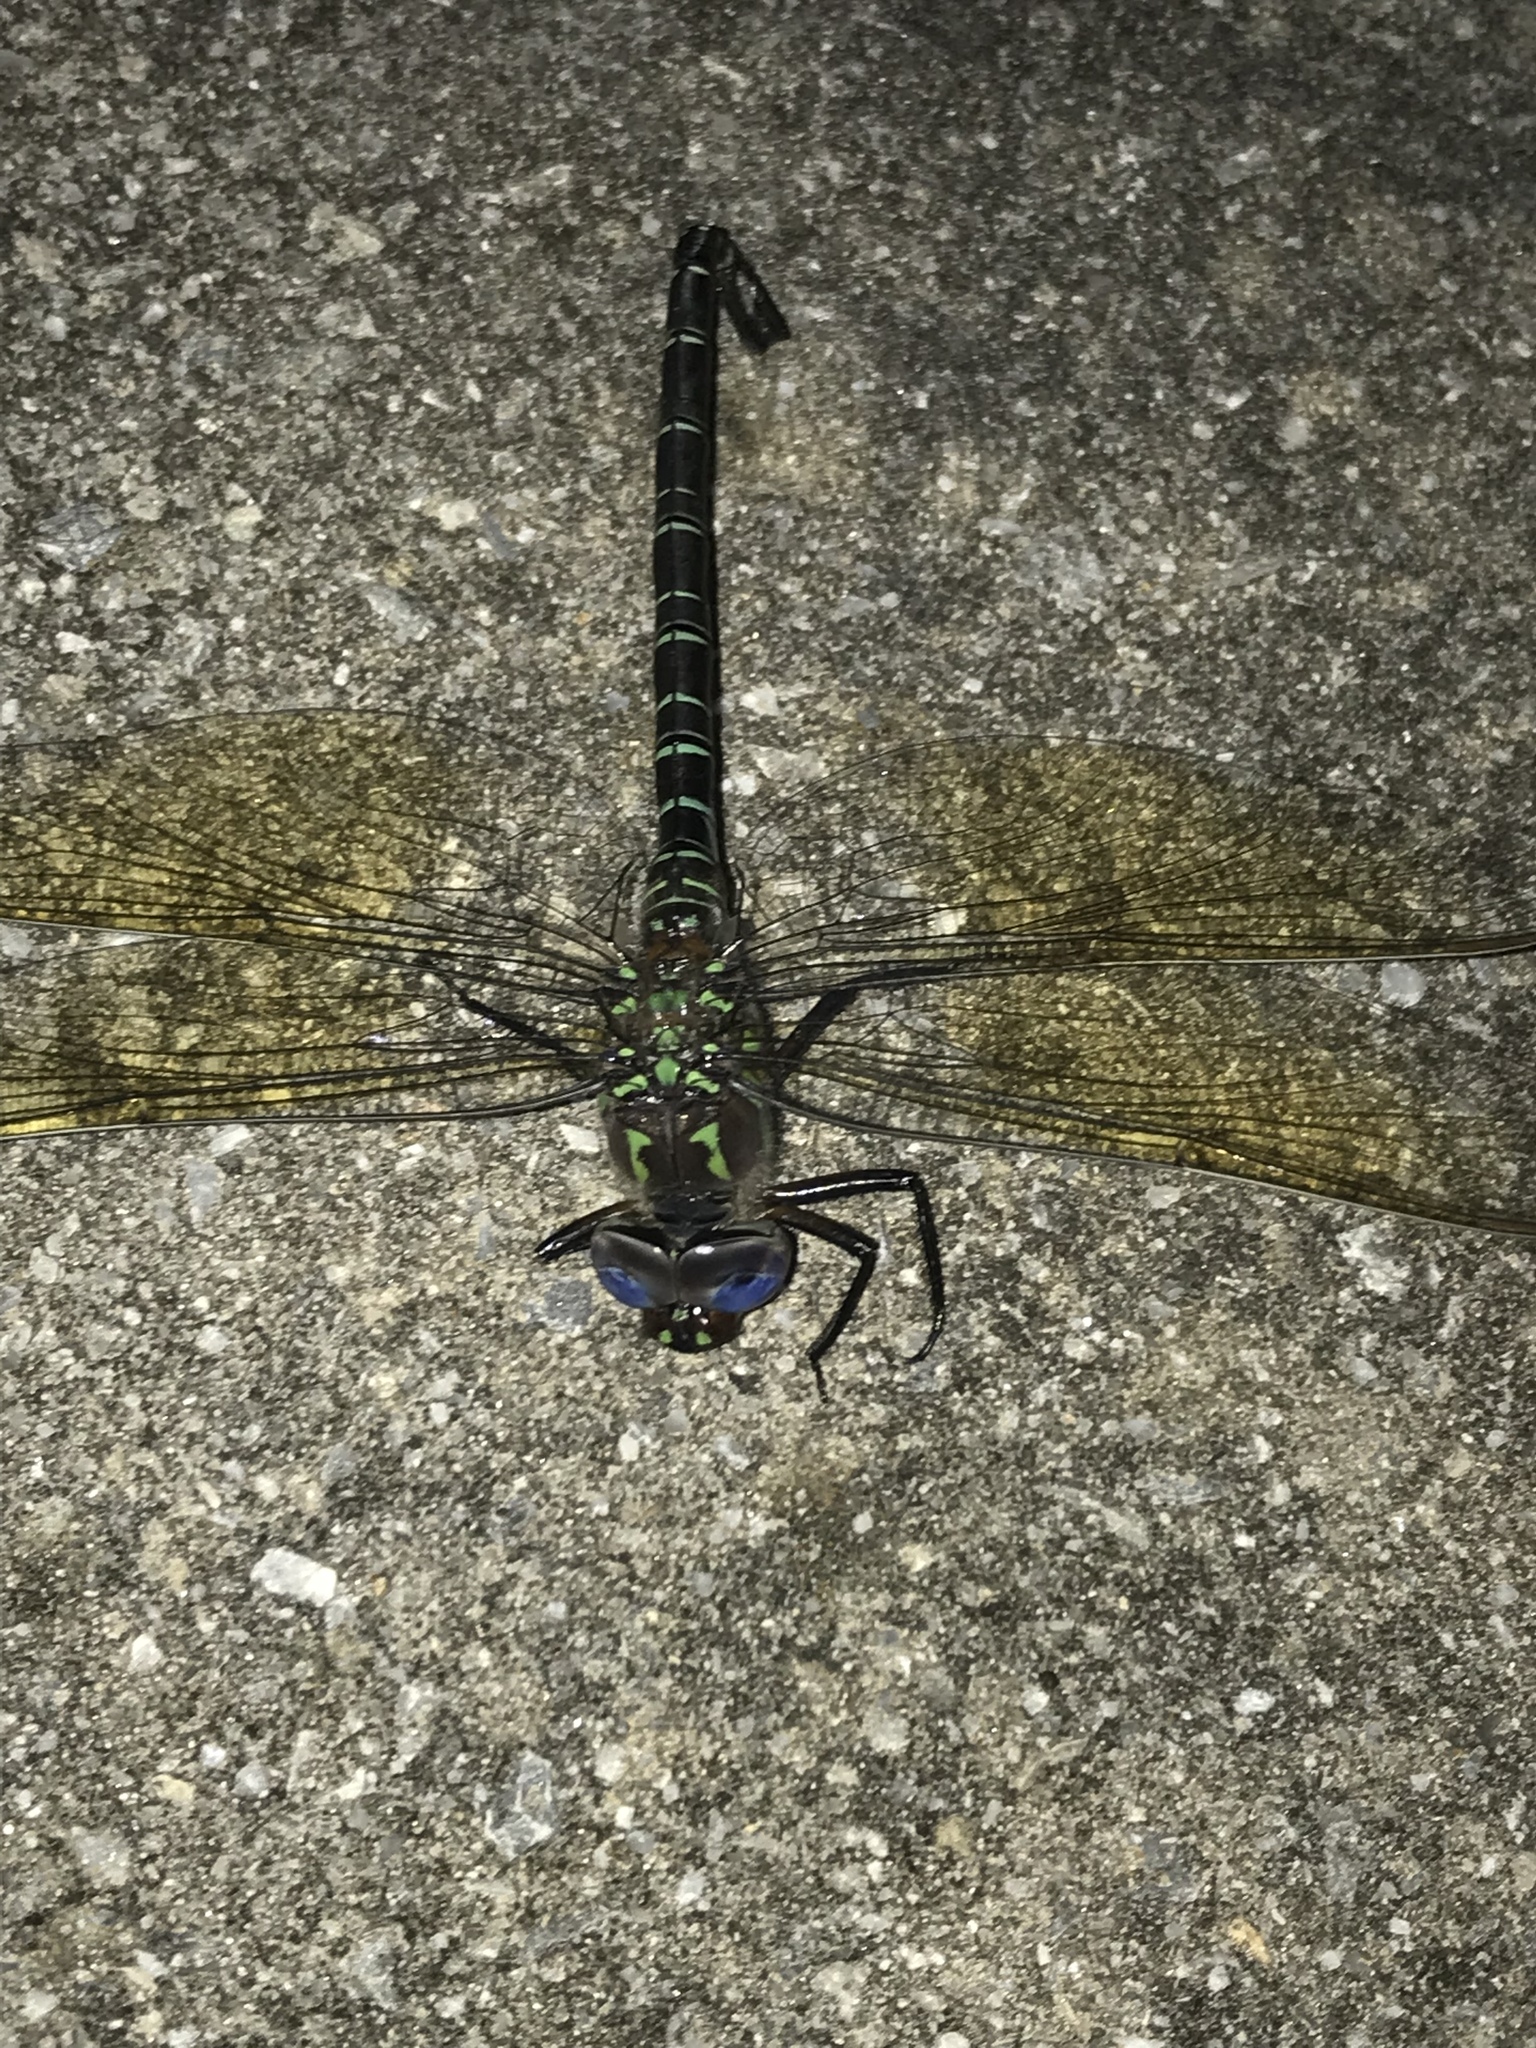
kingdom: Animalia
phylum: Arthropoda
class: Insecta
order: Odonata
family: Aeshnidae
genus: Epiaeschna
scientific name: Epiaeschna heros
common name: Swamp darner
